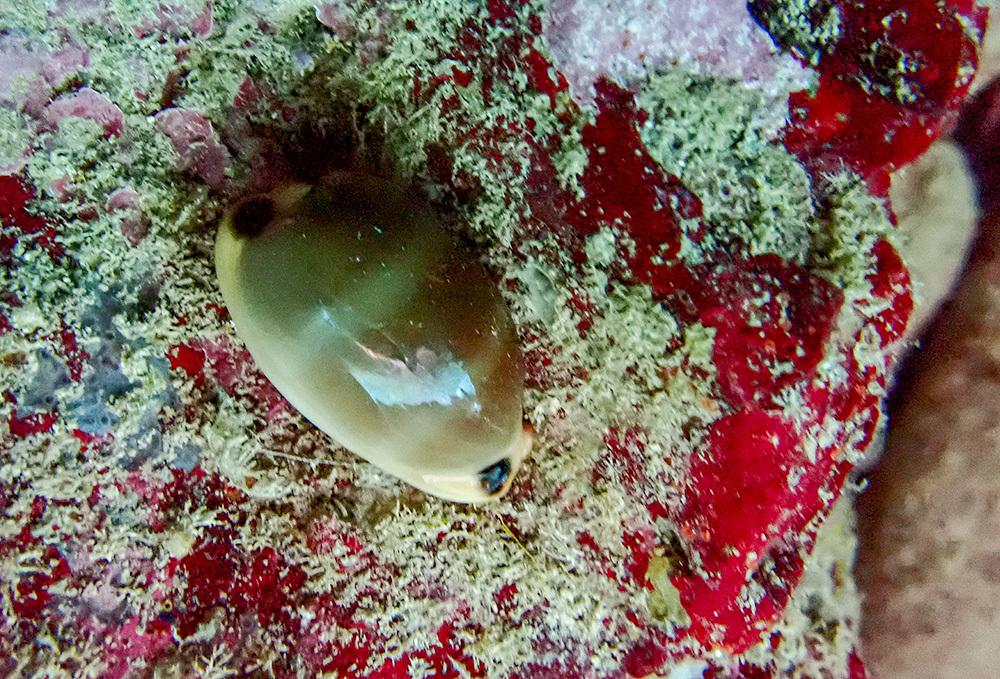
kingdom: Animalia
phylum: Mollusca
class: Gastropoda
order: Littorinimorpha
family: Cypraeidae
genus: Luria
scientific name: Luria lurida
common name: Brown cowry
